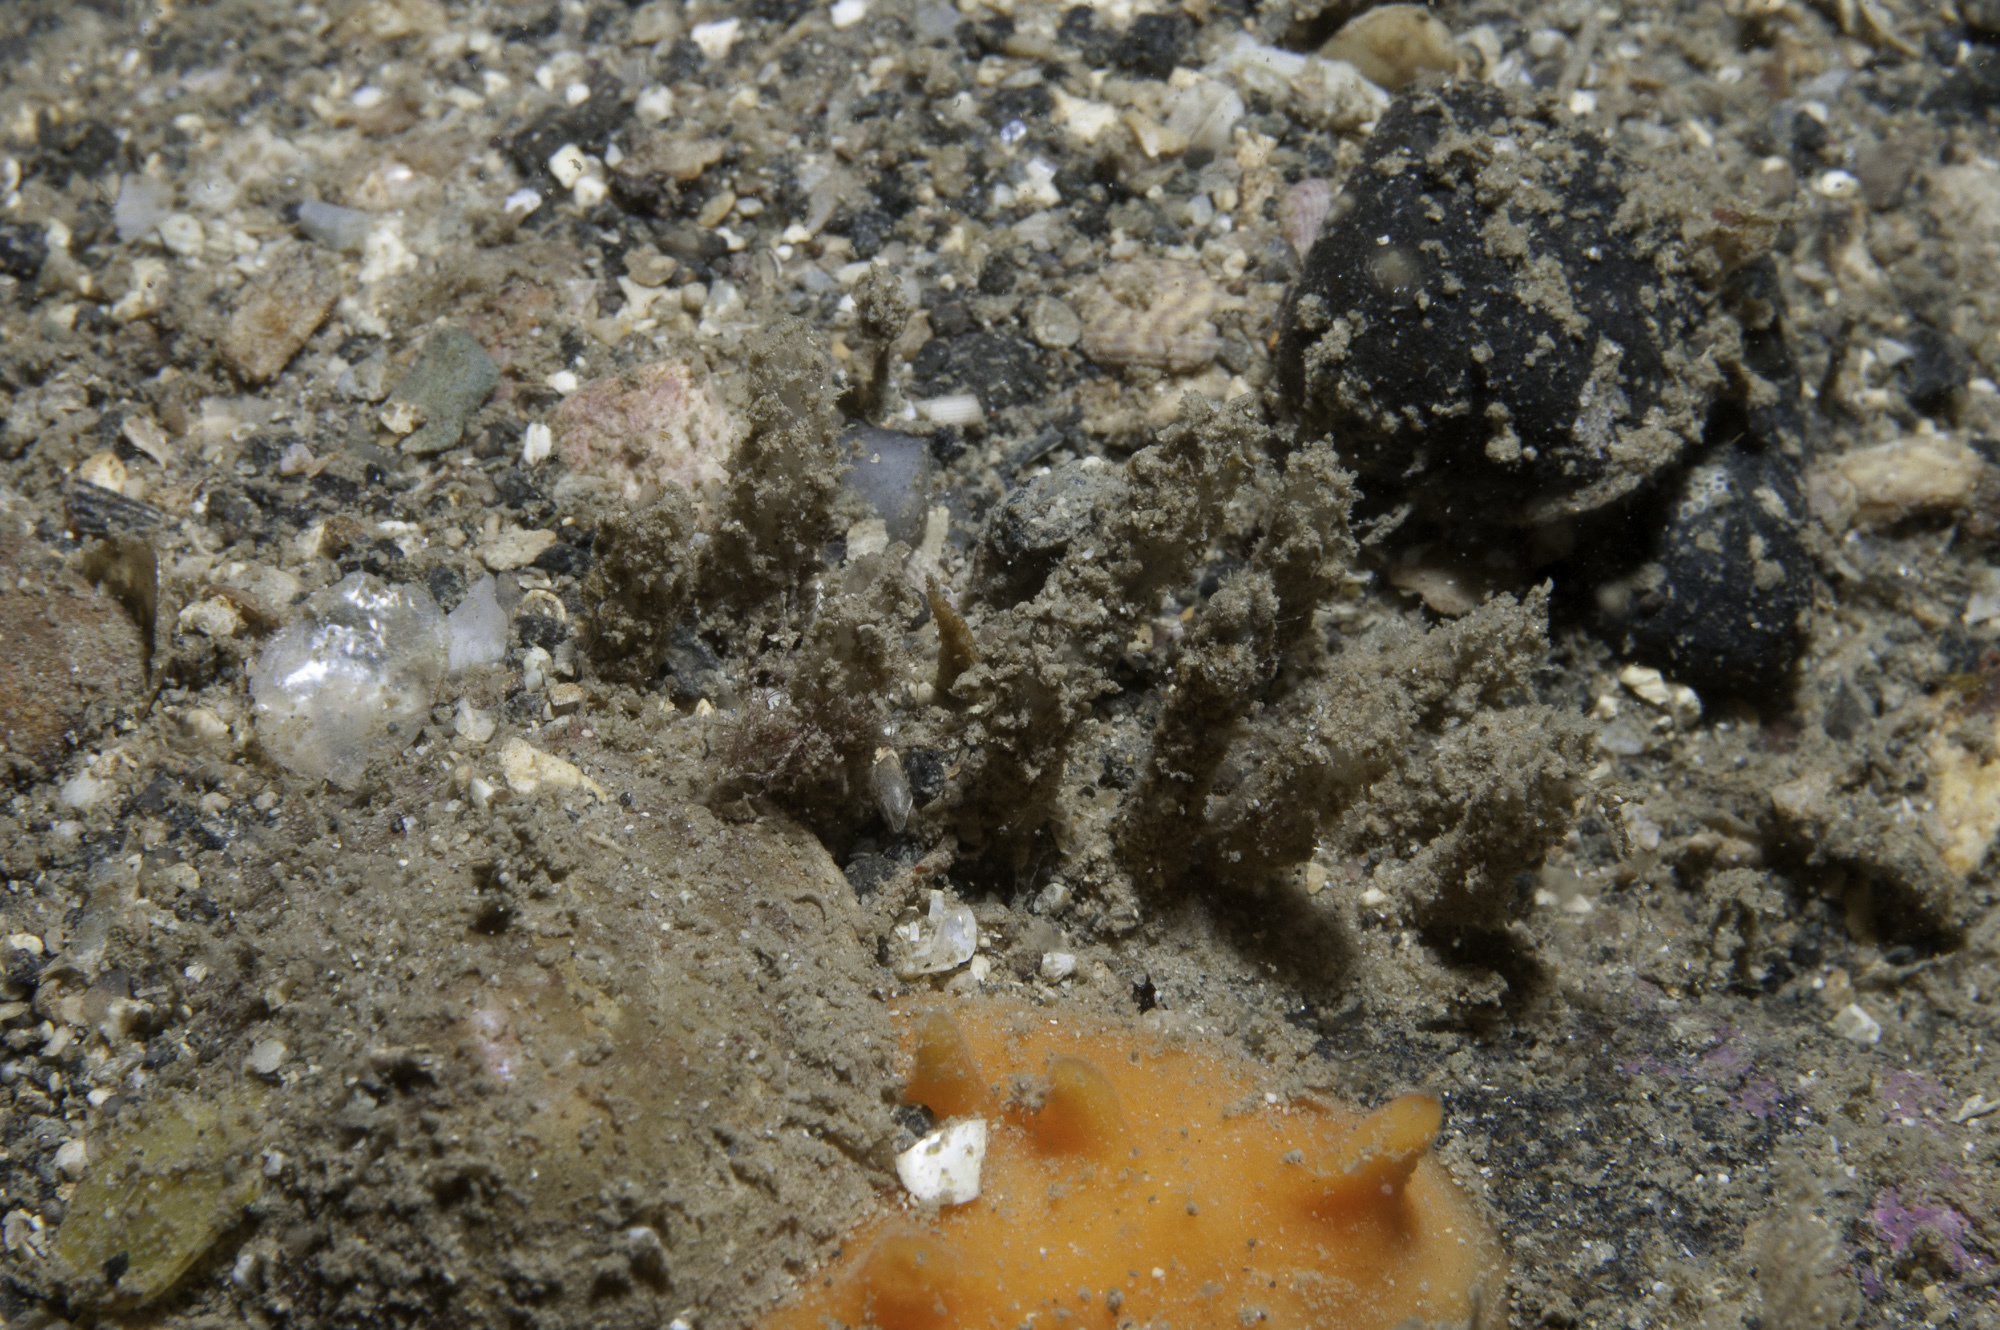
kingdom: Animalia
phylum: Porifera
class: Demospongiae
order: Axinellida
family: Raspailiidae
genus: Raspaciona
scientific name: Raspaciona aculeata
